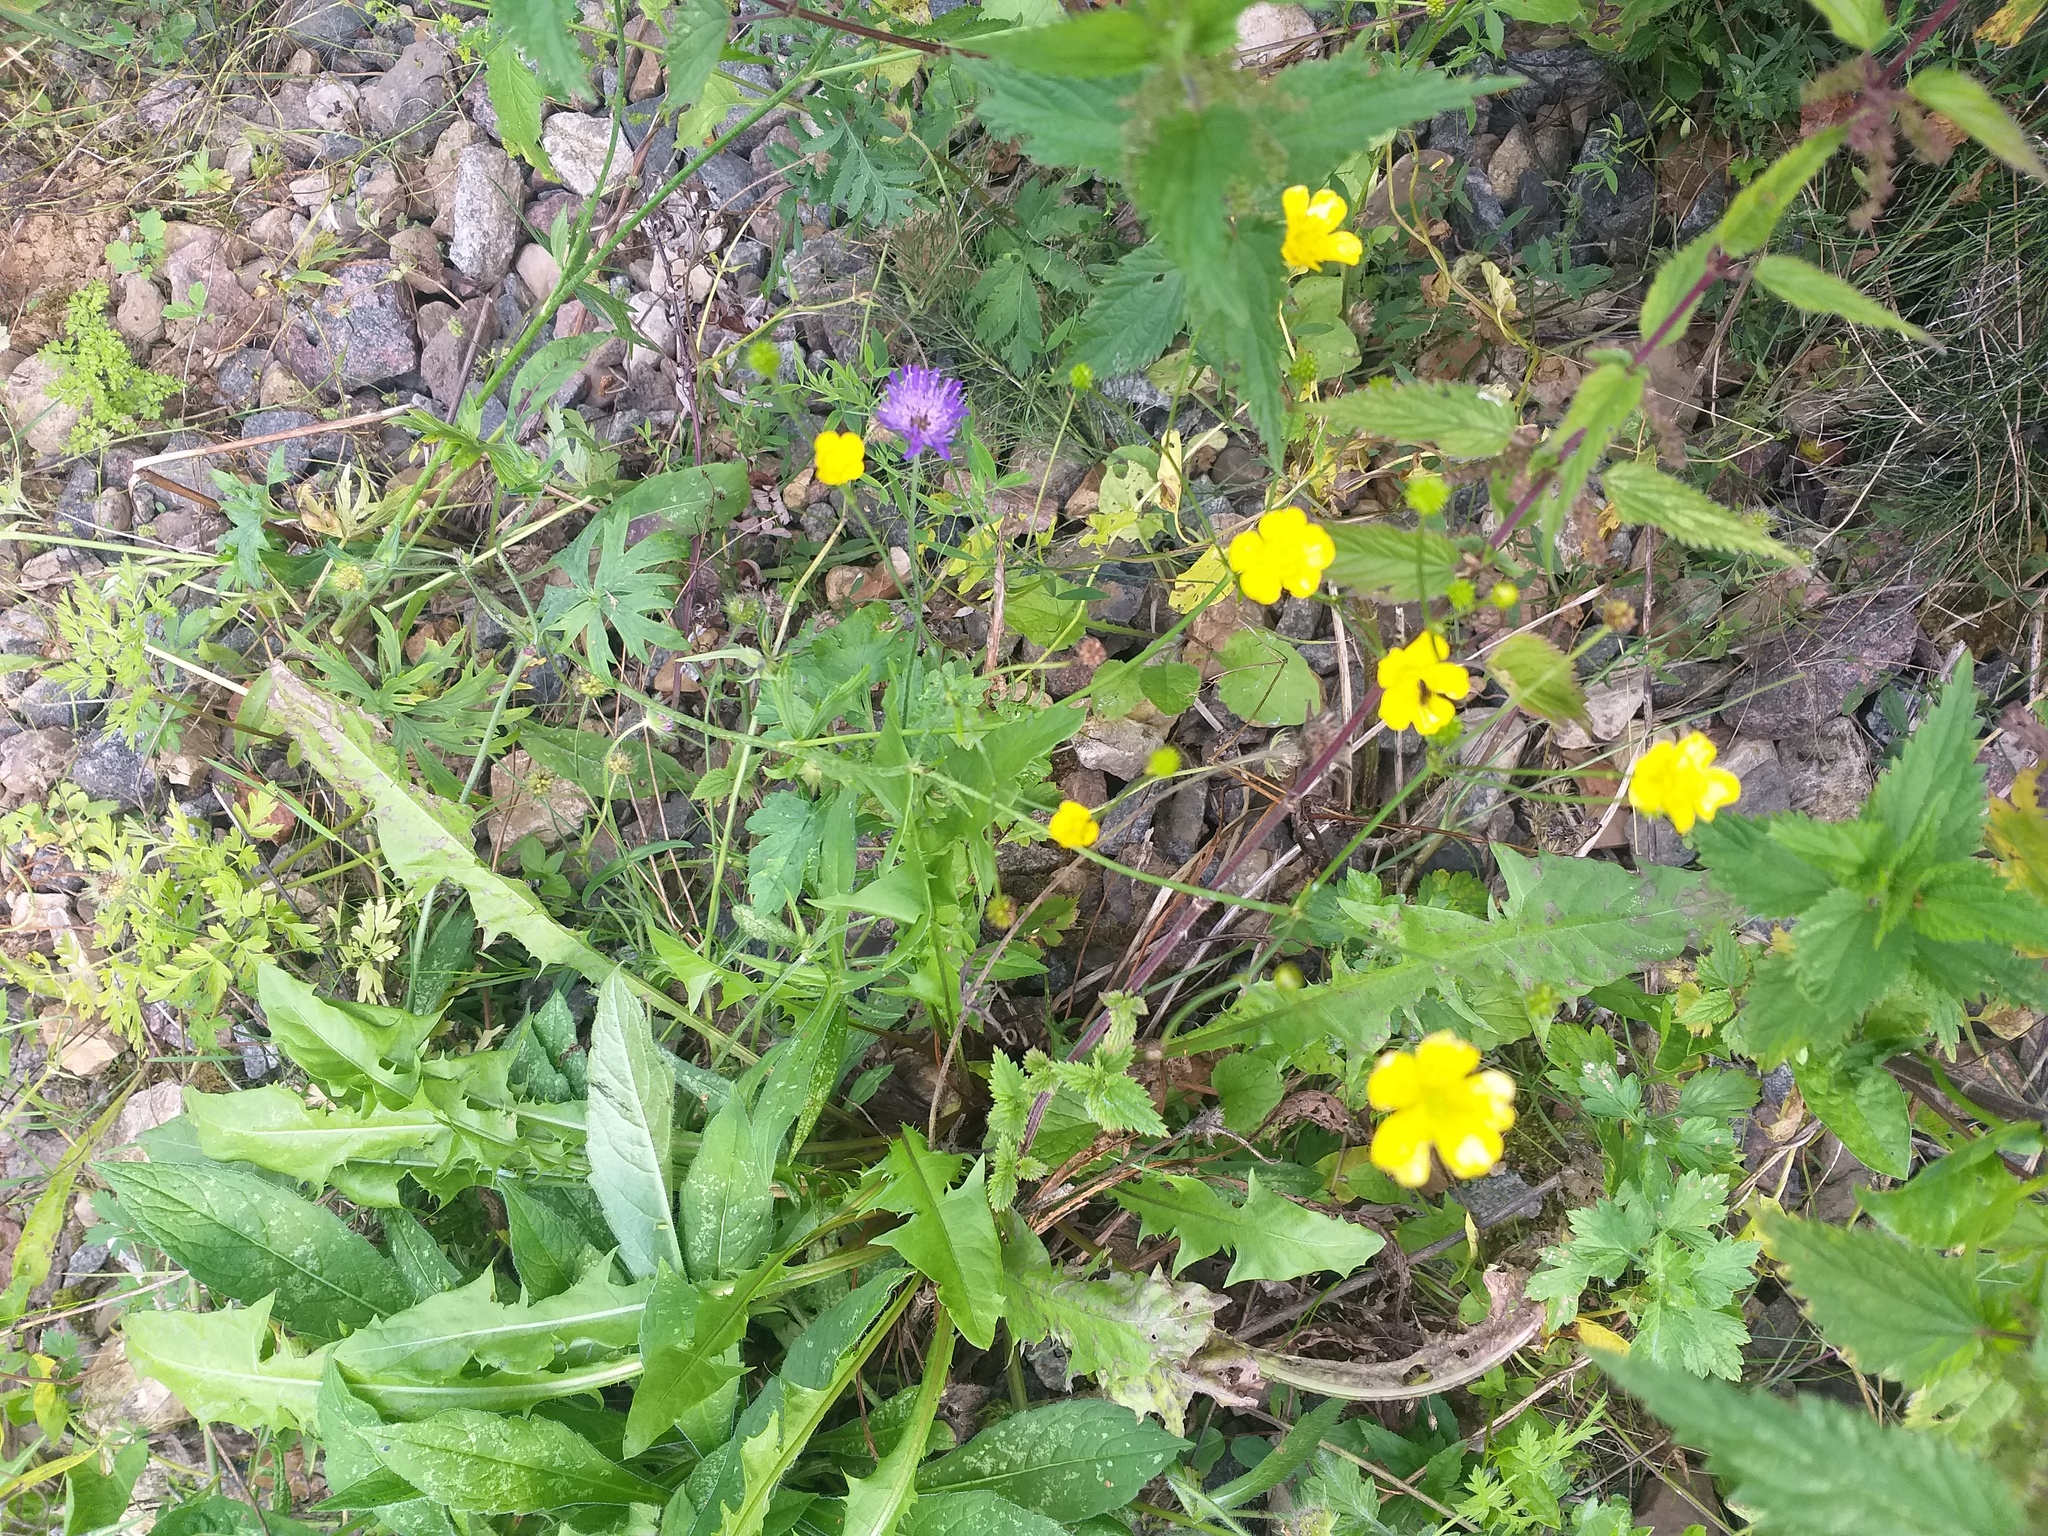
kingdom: Plantae
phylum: Tracheophyta
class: Magnoliopsida
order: Ranunculales
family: Ranunculaceae
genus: Ranunculus
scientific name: Ranunculus acris
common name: Meadow buttercup
